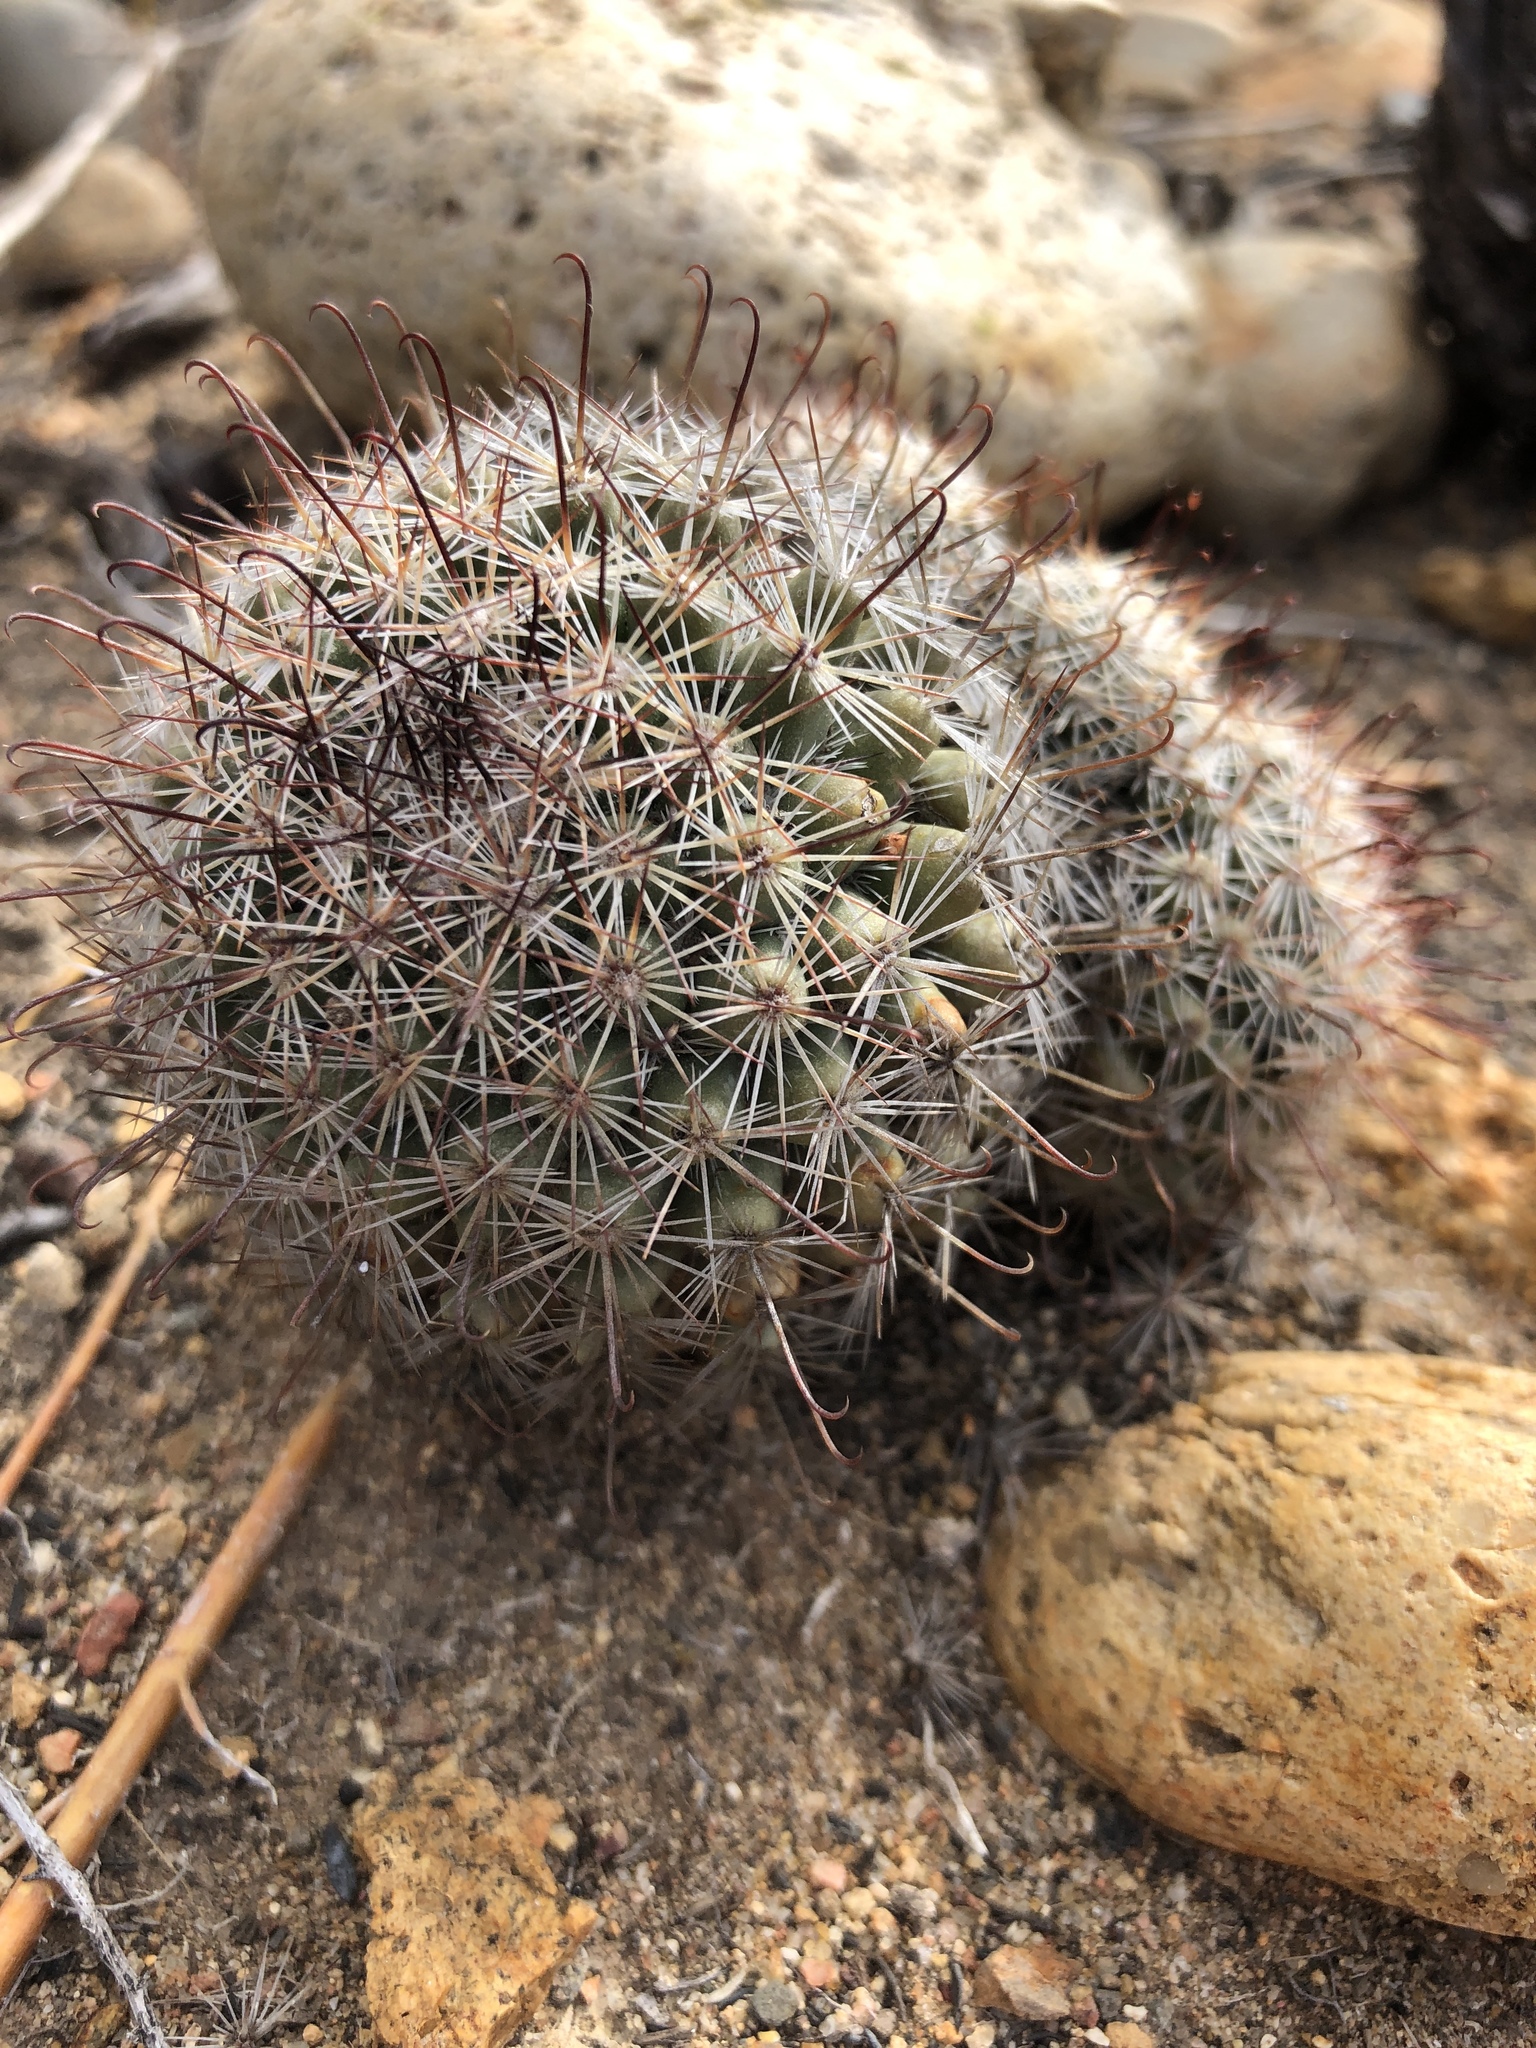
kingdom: Plantae
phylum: Tracheophyta
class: Magnoliopsida
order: Caryophyllales
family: Cactaceae
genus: Cochemiea
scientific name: Cochemiea dioica
